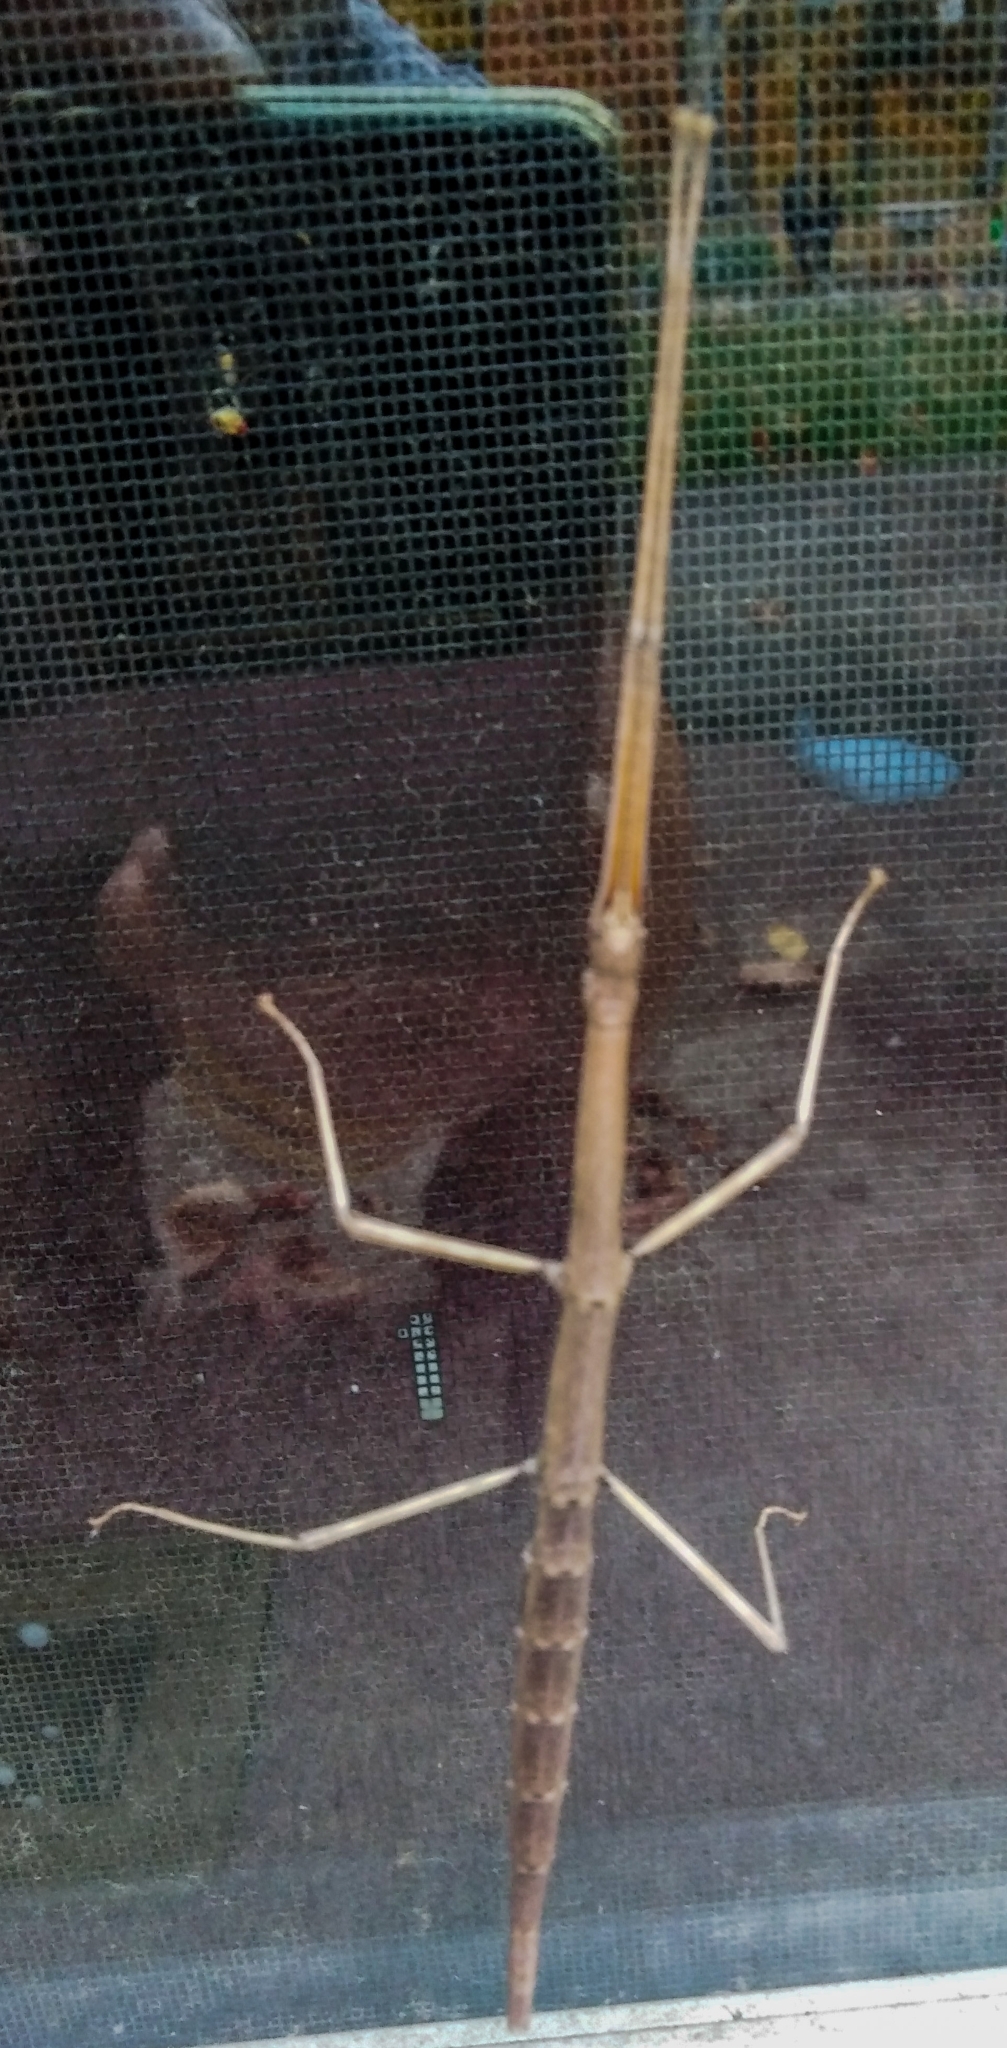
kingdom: Animalia
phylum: Arthropoda
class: Insecta
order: Phasmida
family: Diapheromeridae
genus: Diapheromera
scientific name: Diapheromera femorata
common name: Common american walkingstick
